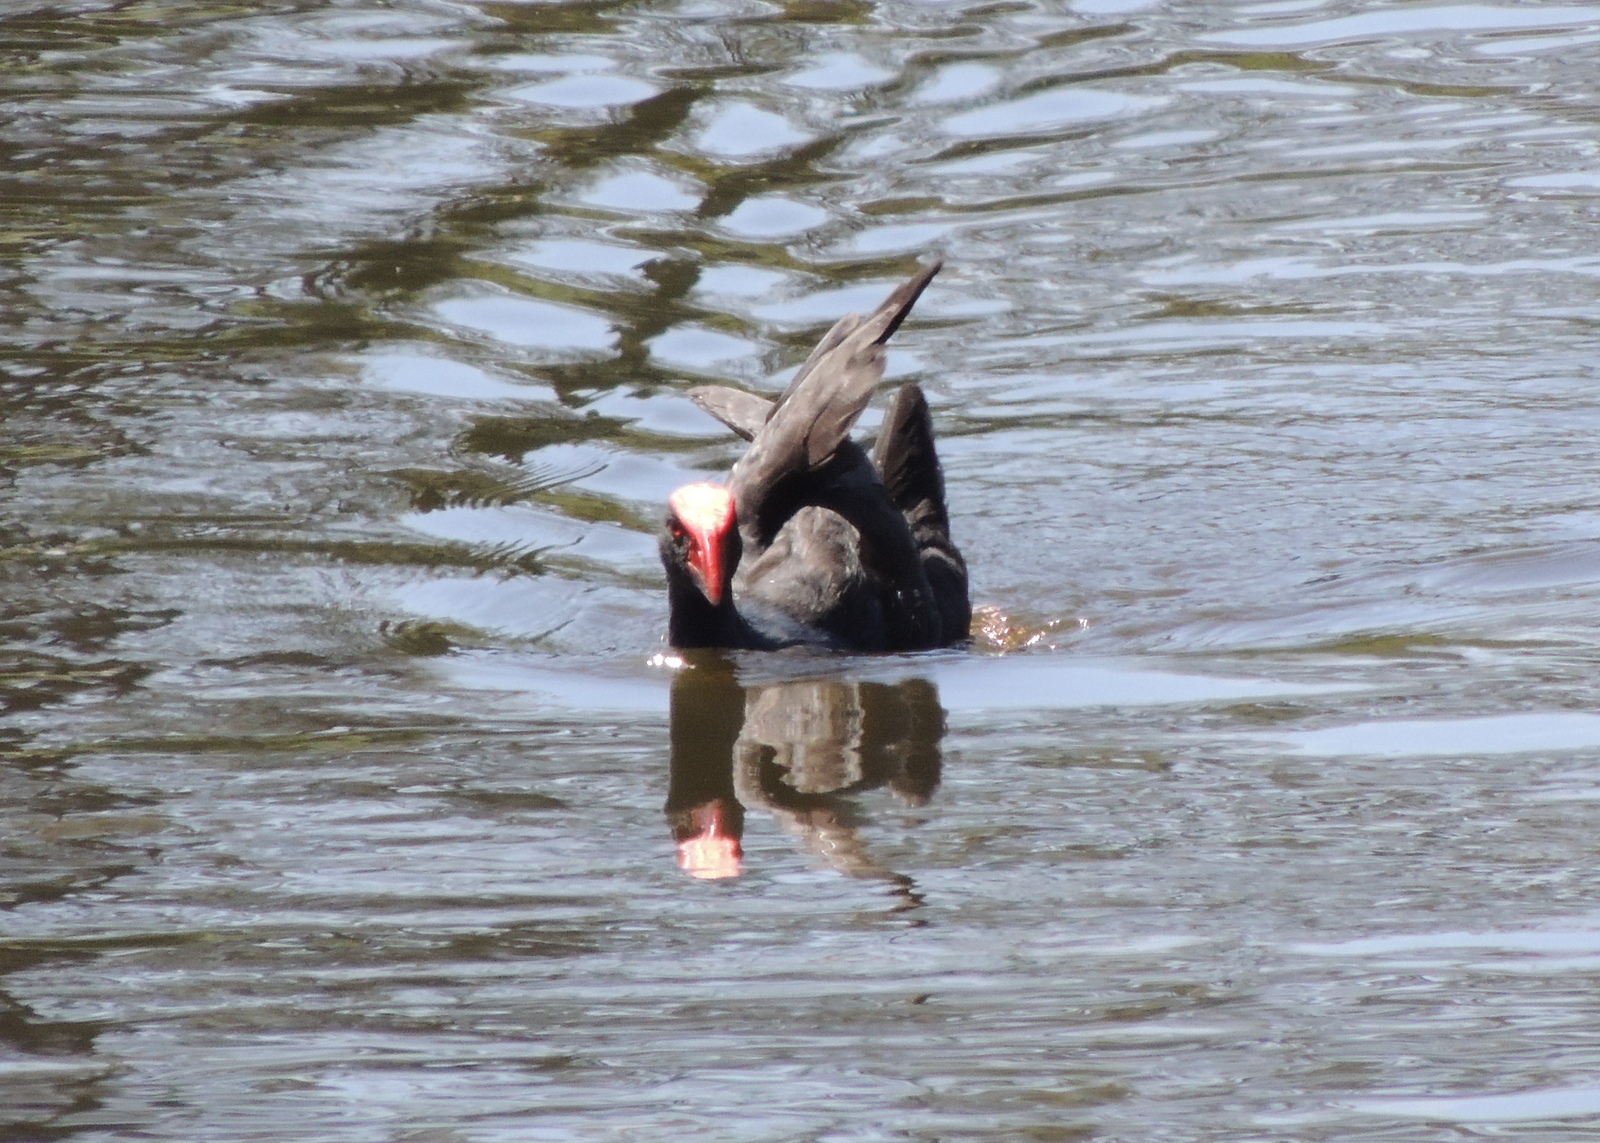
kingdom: Animalia
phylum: Chordata
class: Aves
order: Gruiformes
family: Rallidae
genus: Porphyrio
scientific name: Porphyrio melanotus
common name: Australasian swamphen
